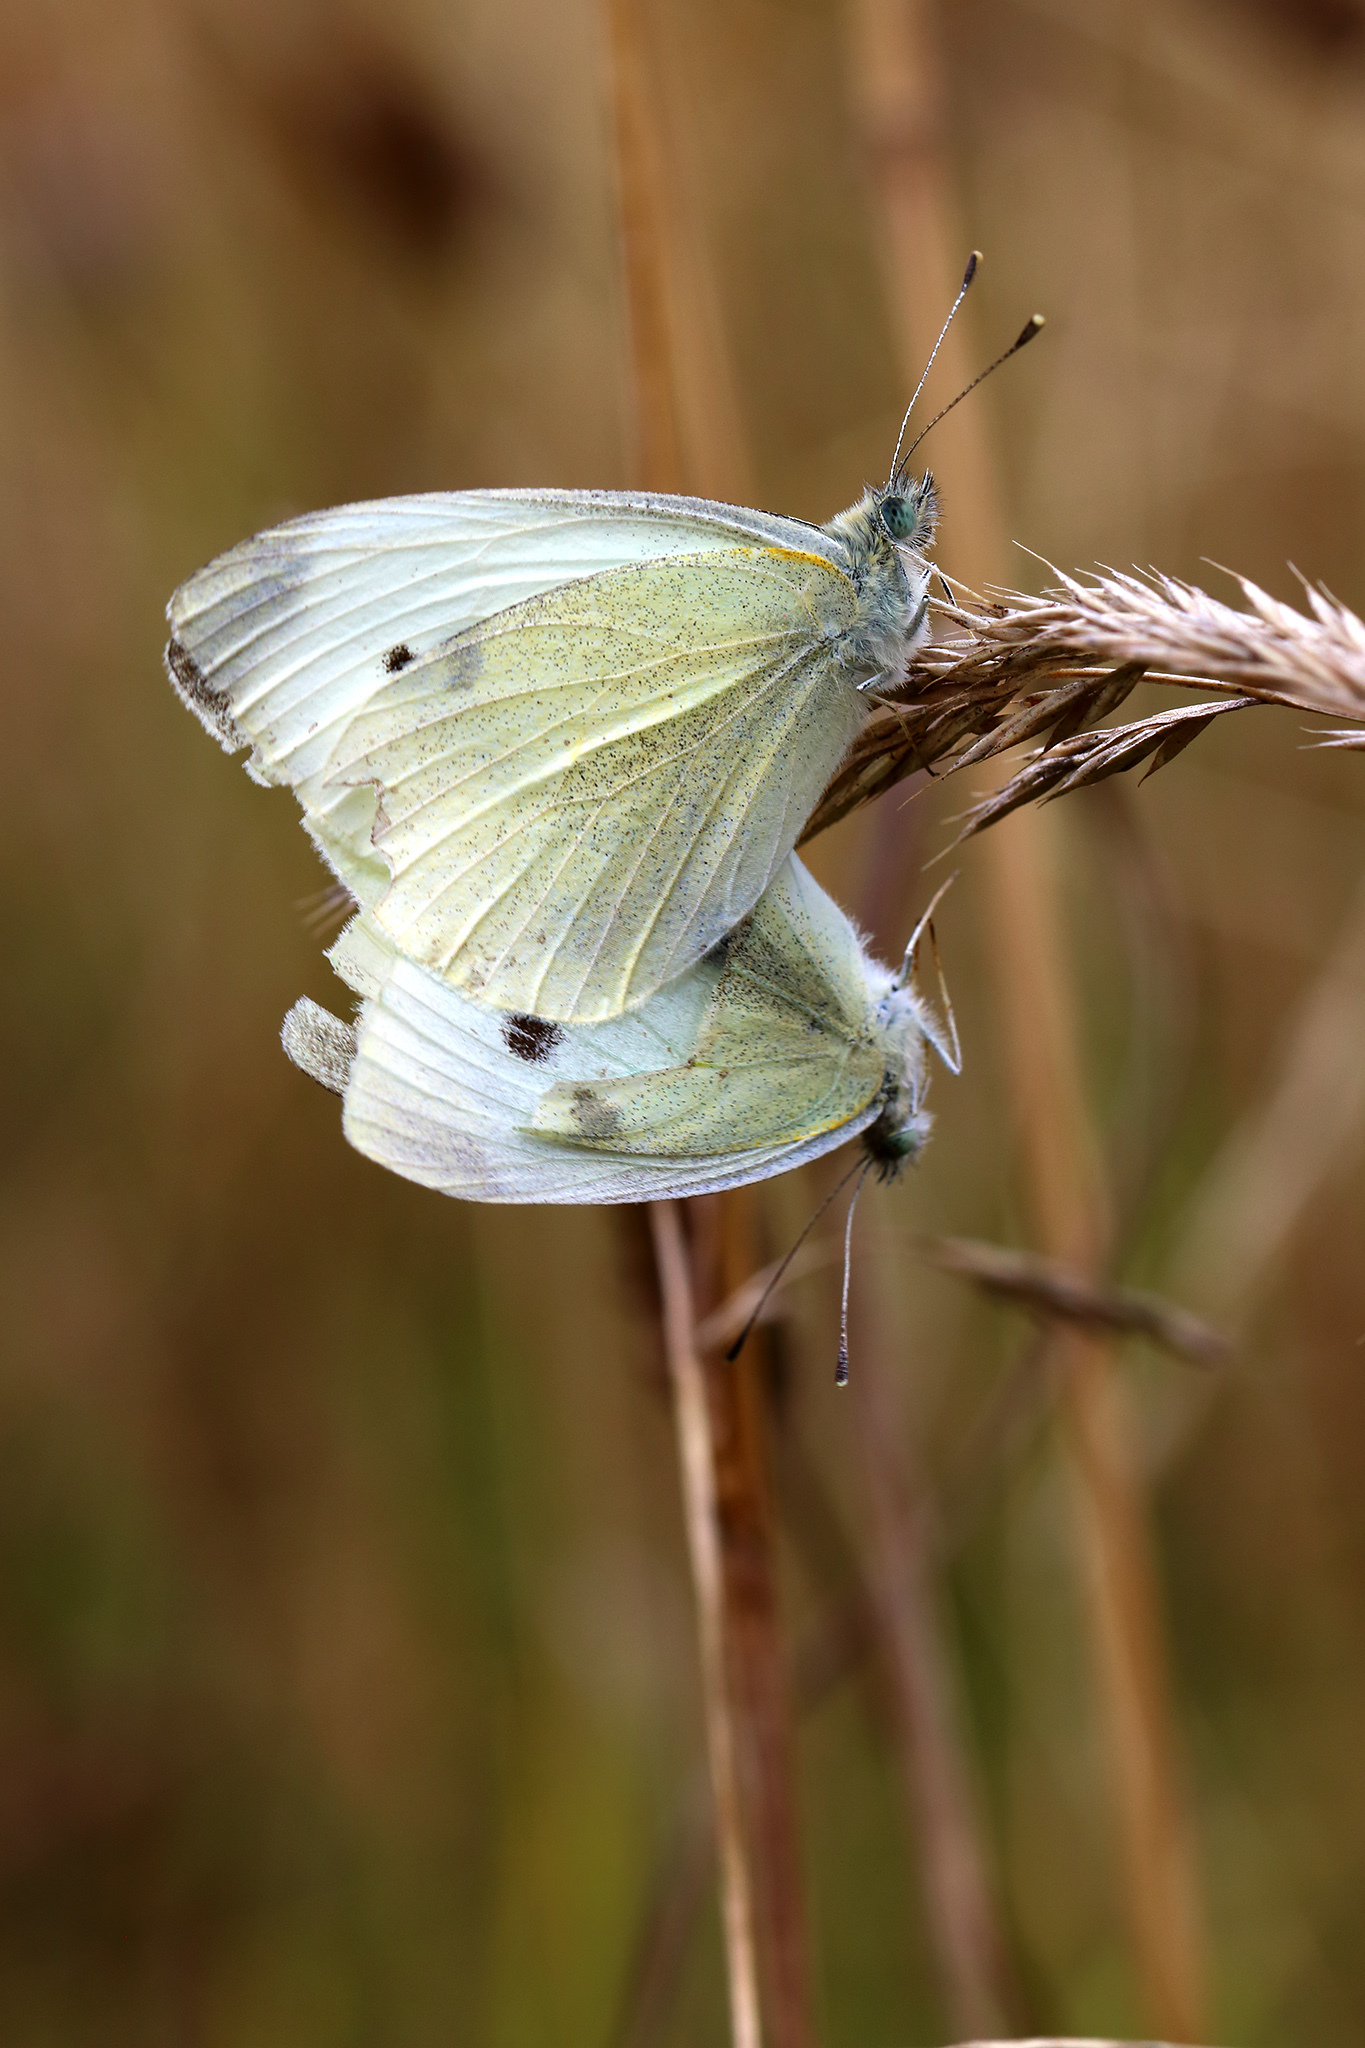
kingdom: Animalia
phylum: Arthropoda
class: Insecta
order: Lepidoptera
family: Pieridae
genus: Pieris
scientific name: Pieris rapae
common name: Small white
